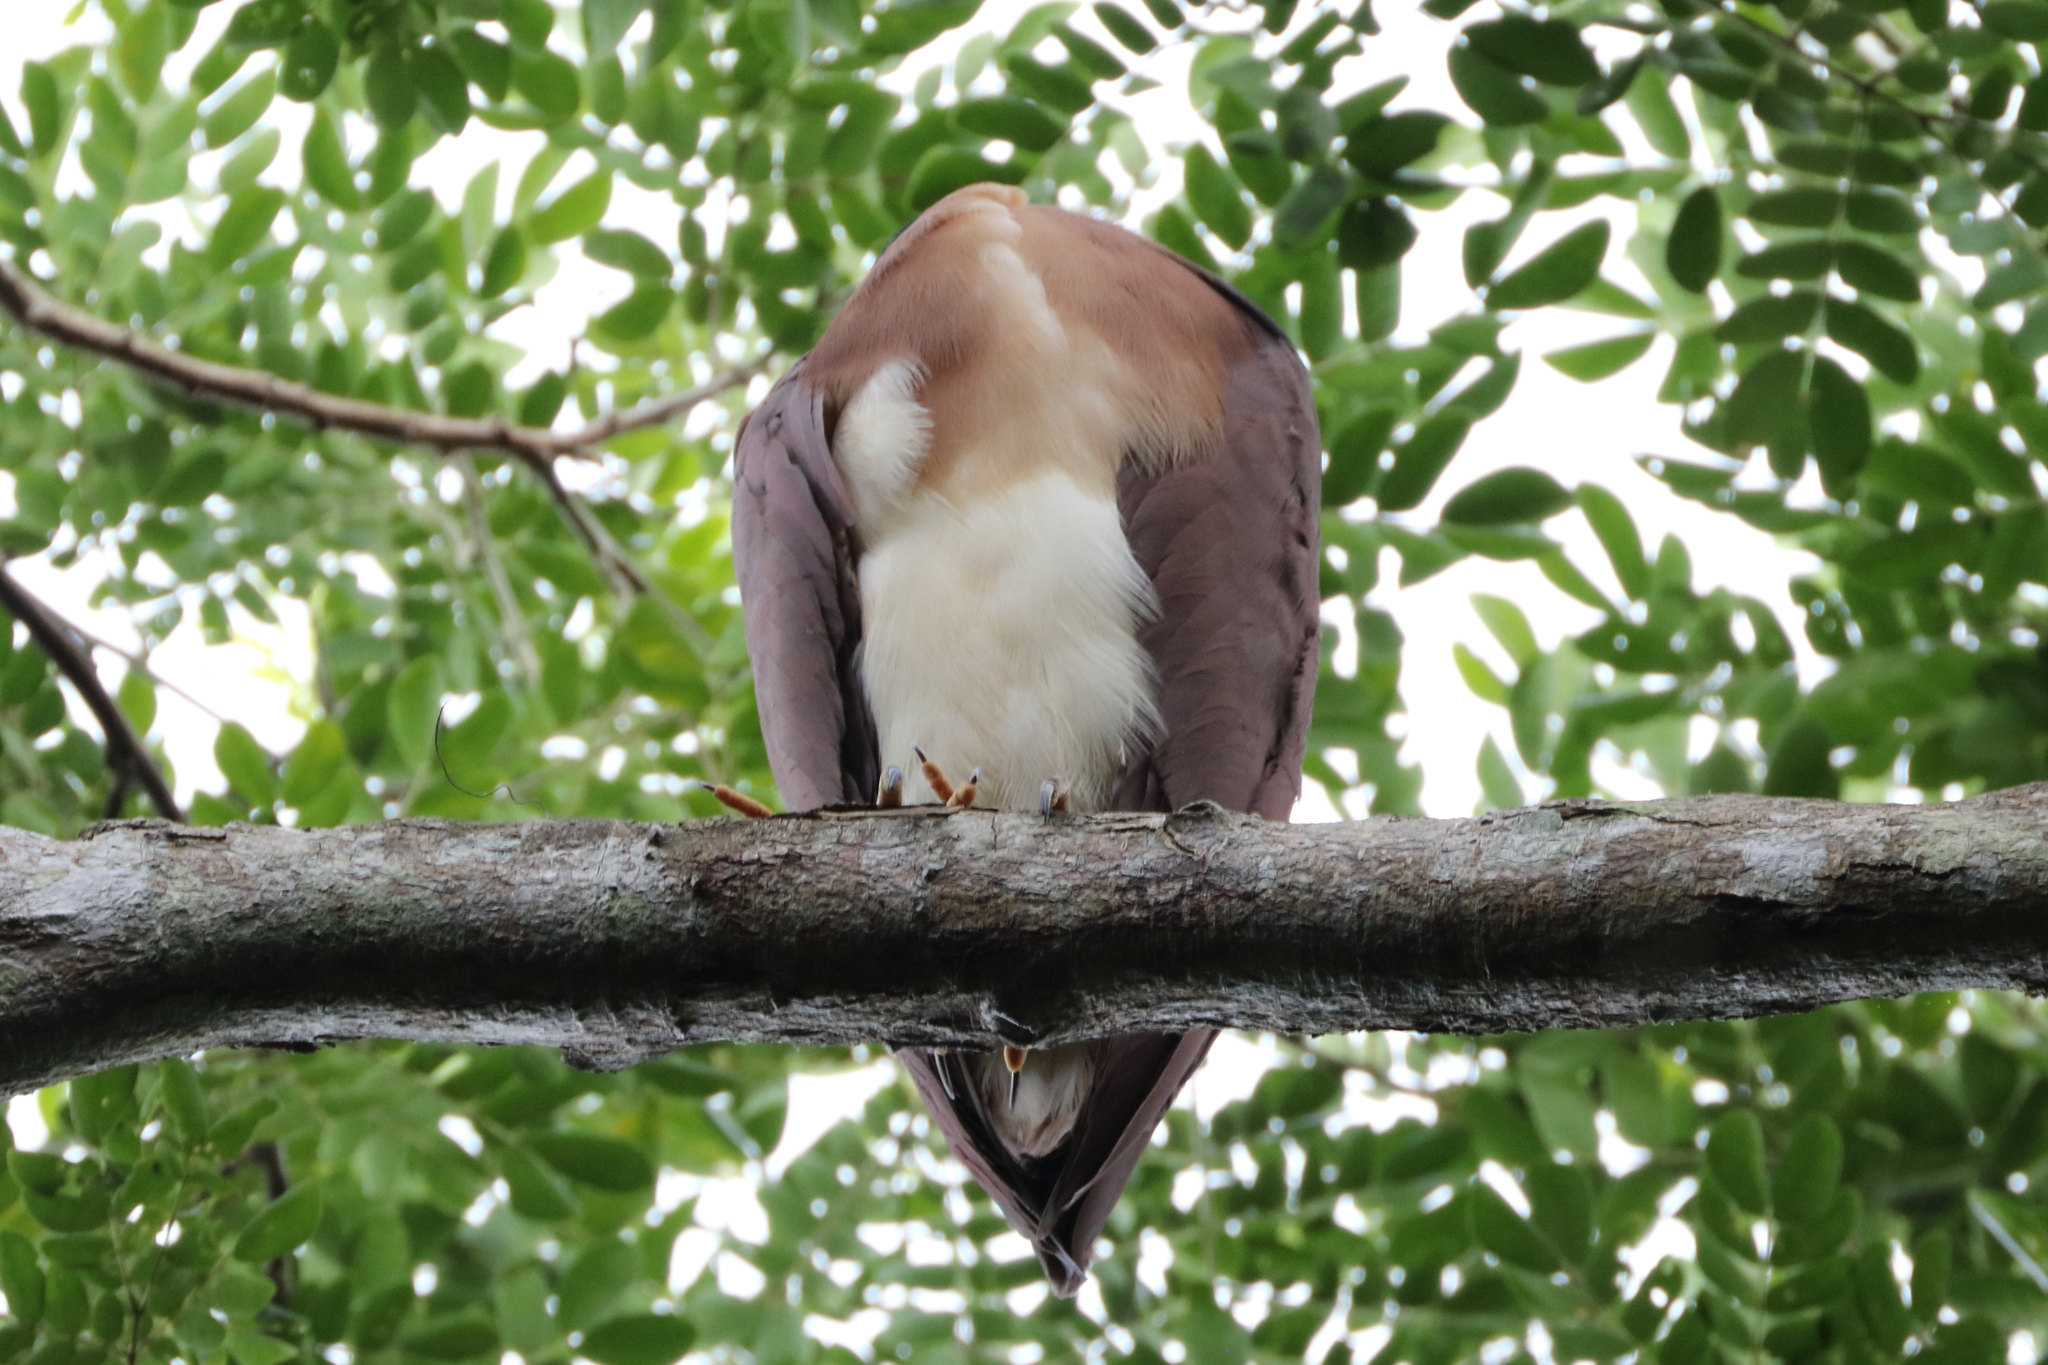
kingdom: Animalia
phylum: Chordata
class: Aves
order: Pelecaniformes
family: Ardeidae
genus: Nycticorax
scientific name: Nycticorax caledonicus
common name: Rufous night-heron
